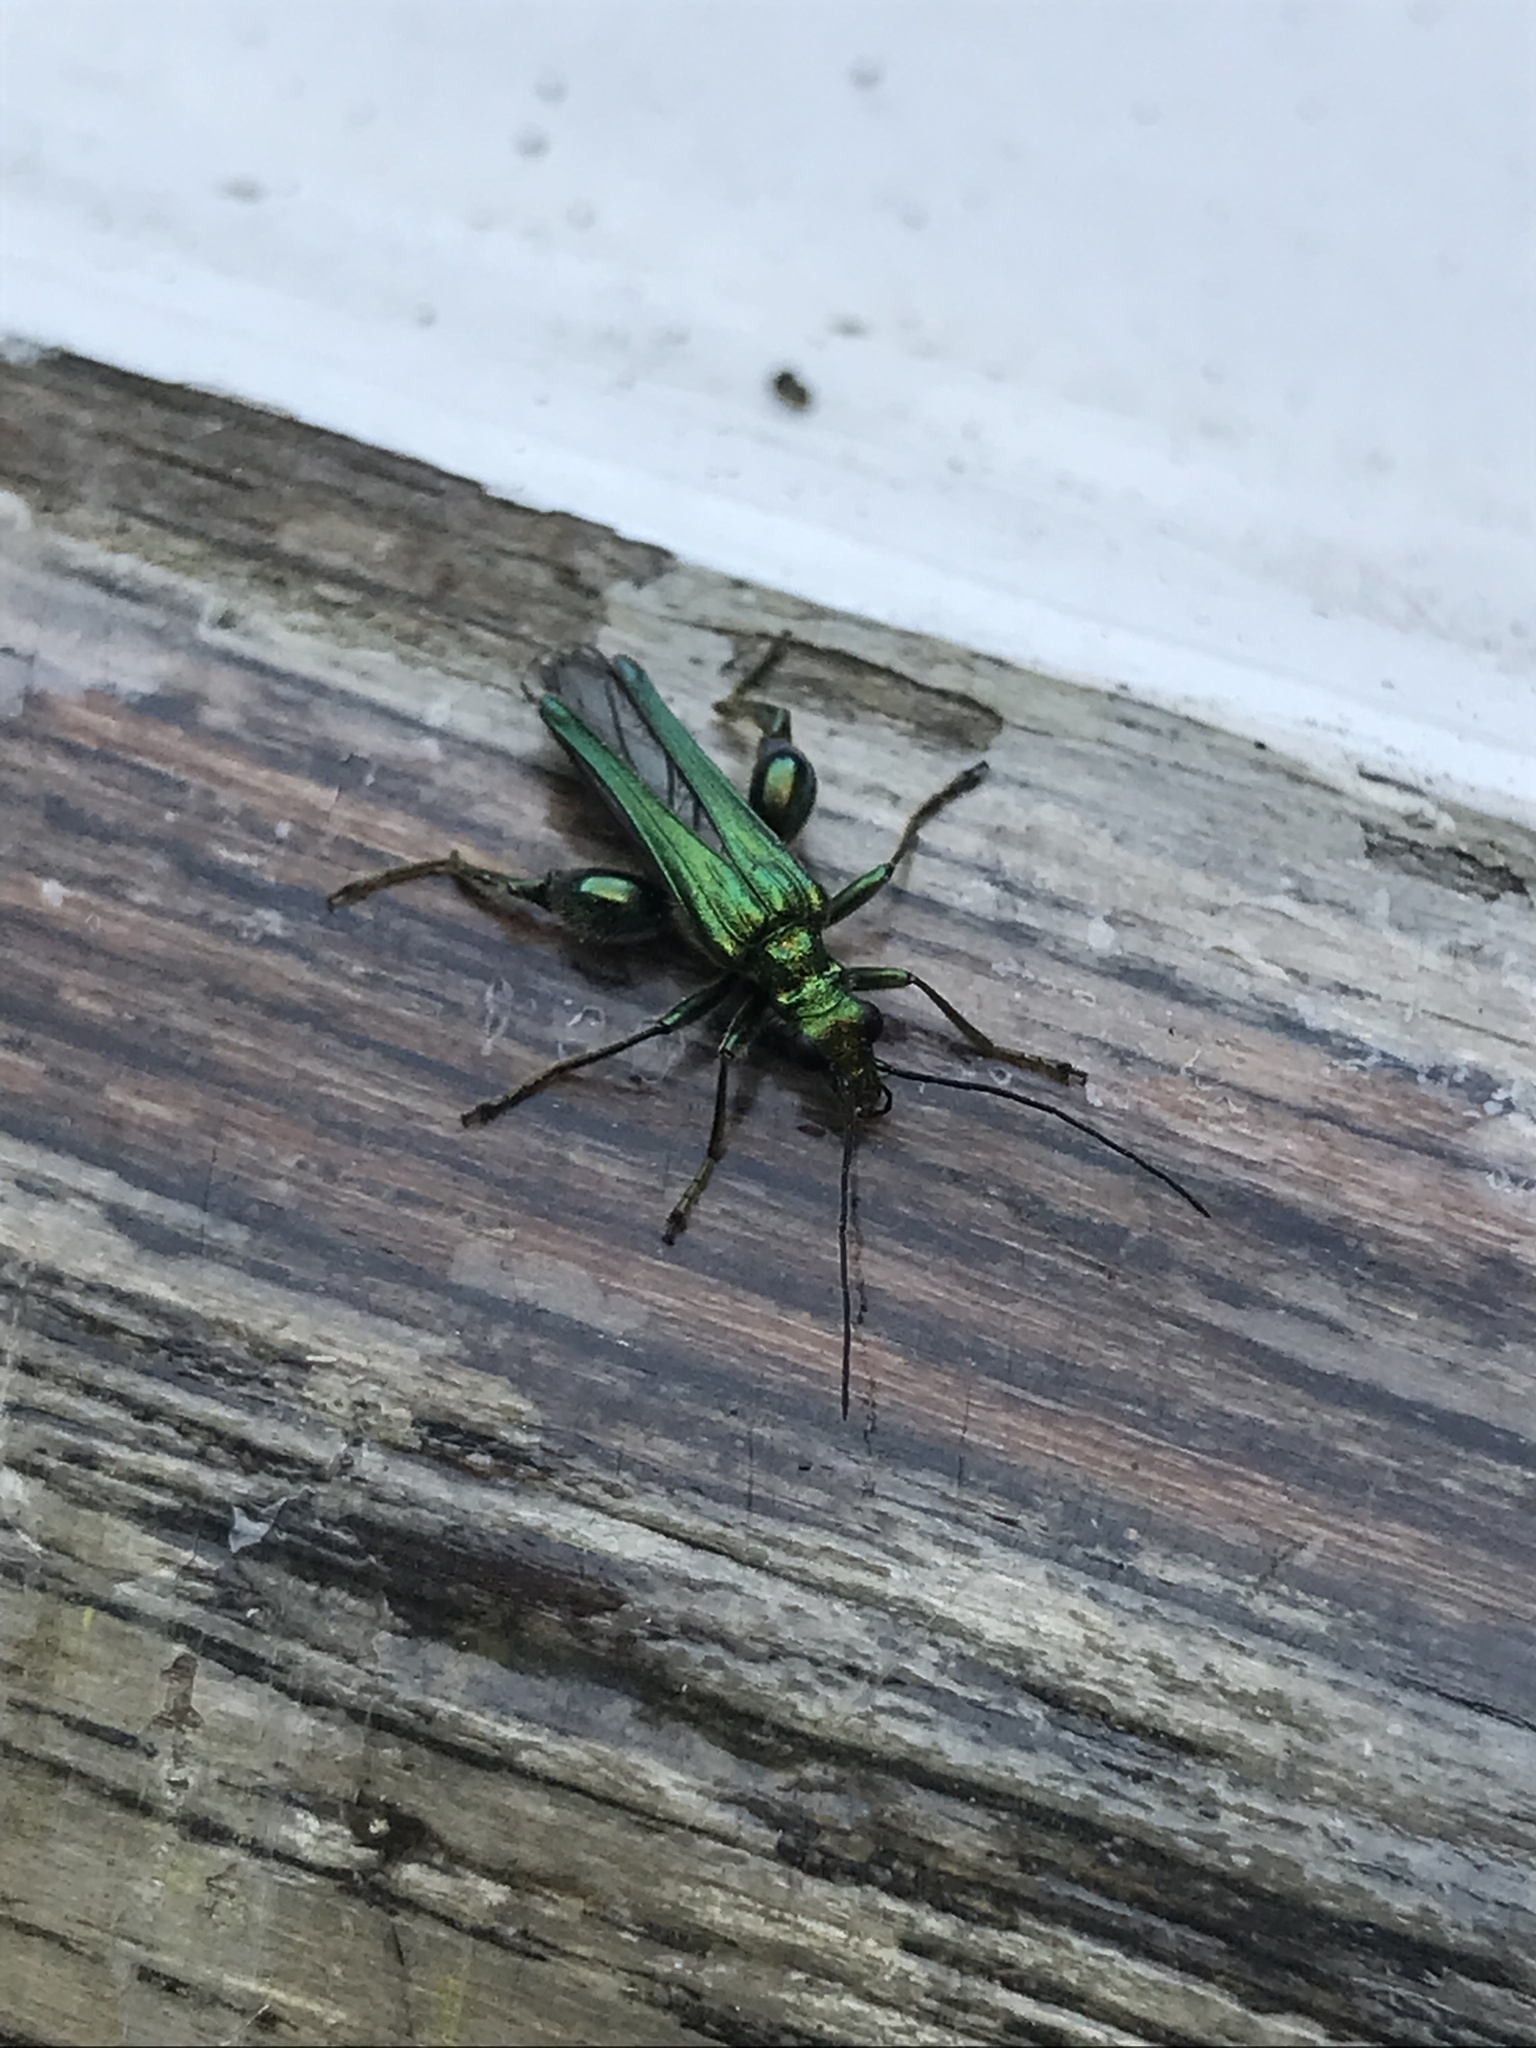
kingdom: Animalia
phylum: Arthropoda
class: Insecta
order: Coleoptera
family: Oedemeridae
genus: Oedemera
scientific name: Oedemera nobilis
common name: Swollen-thighed beetle
